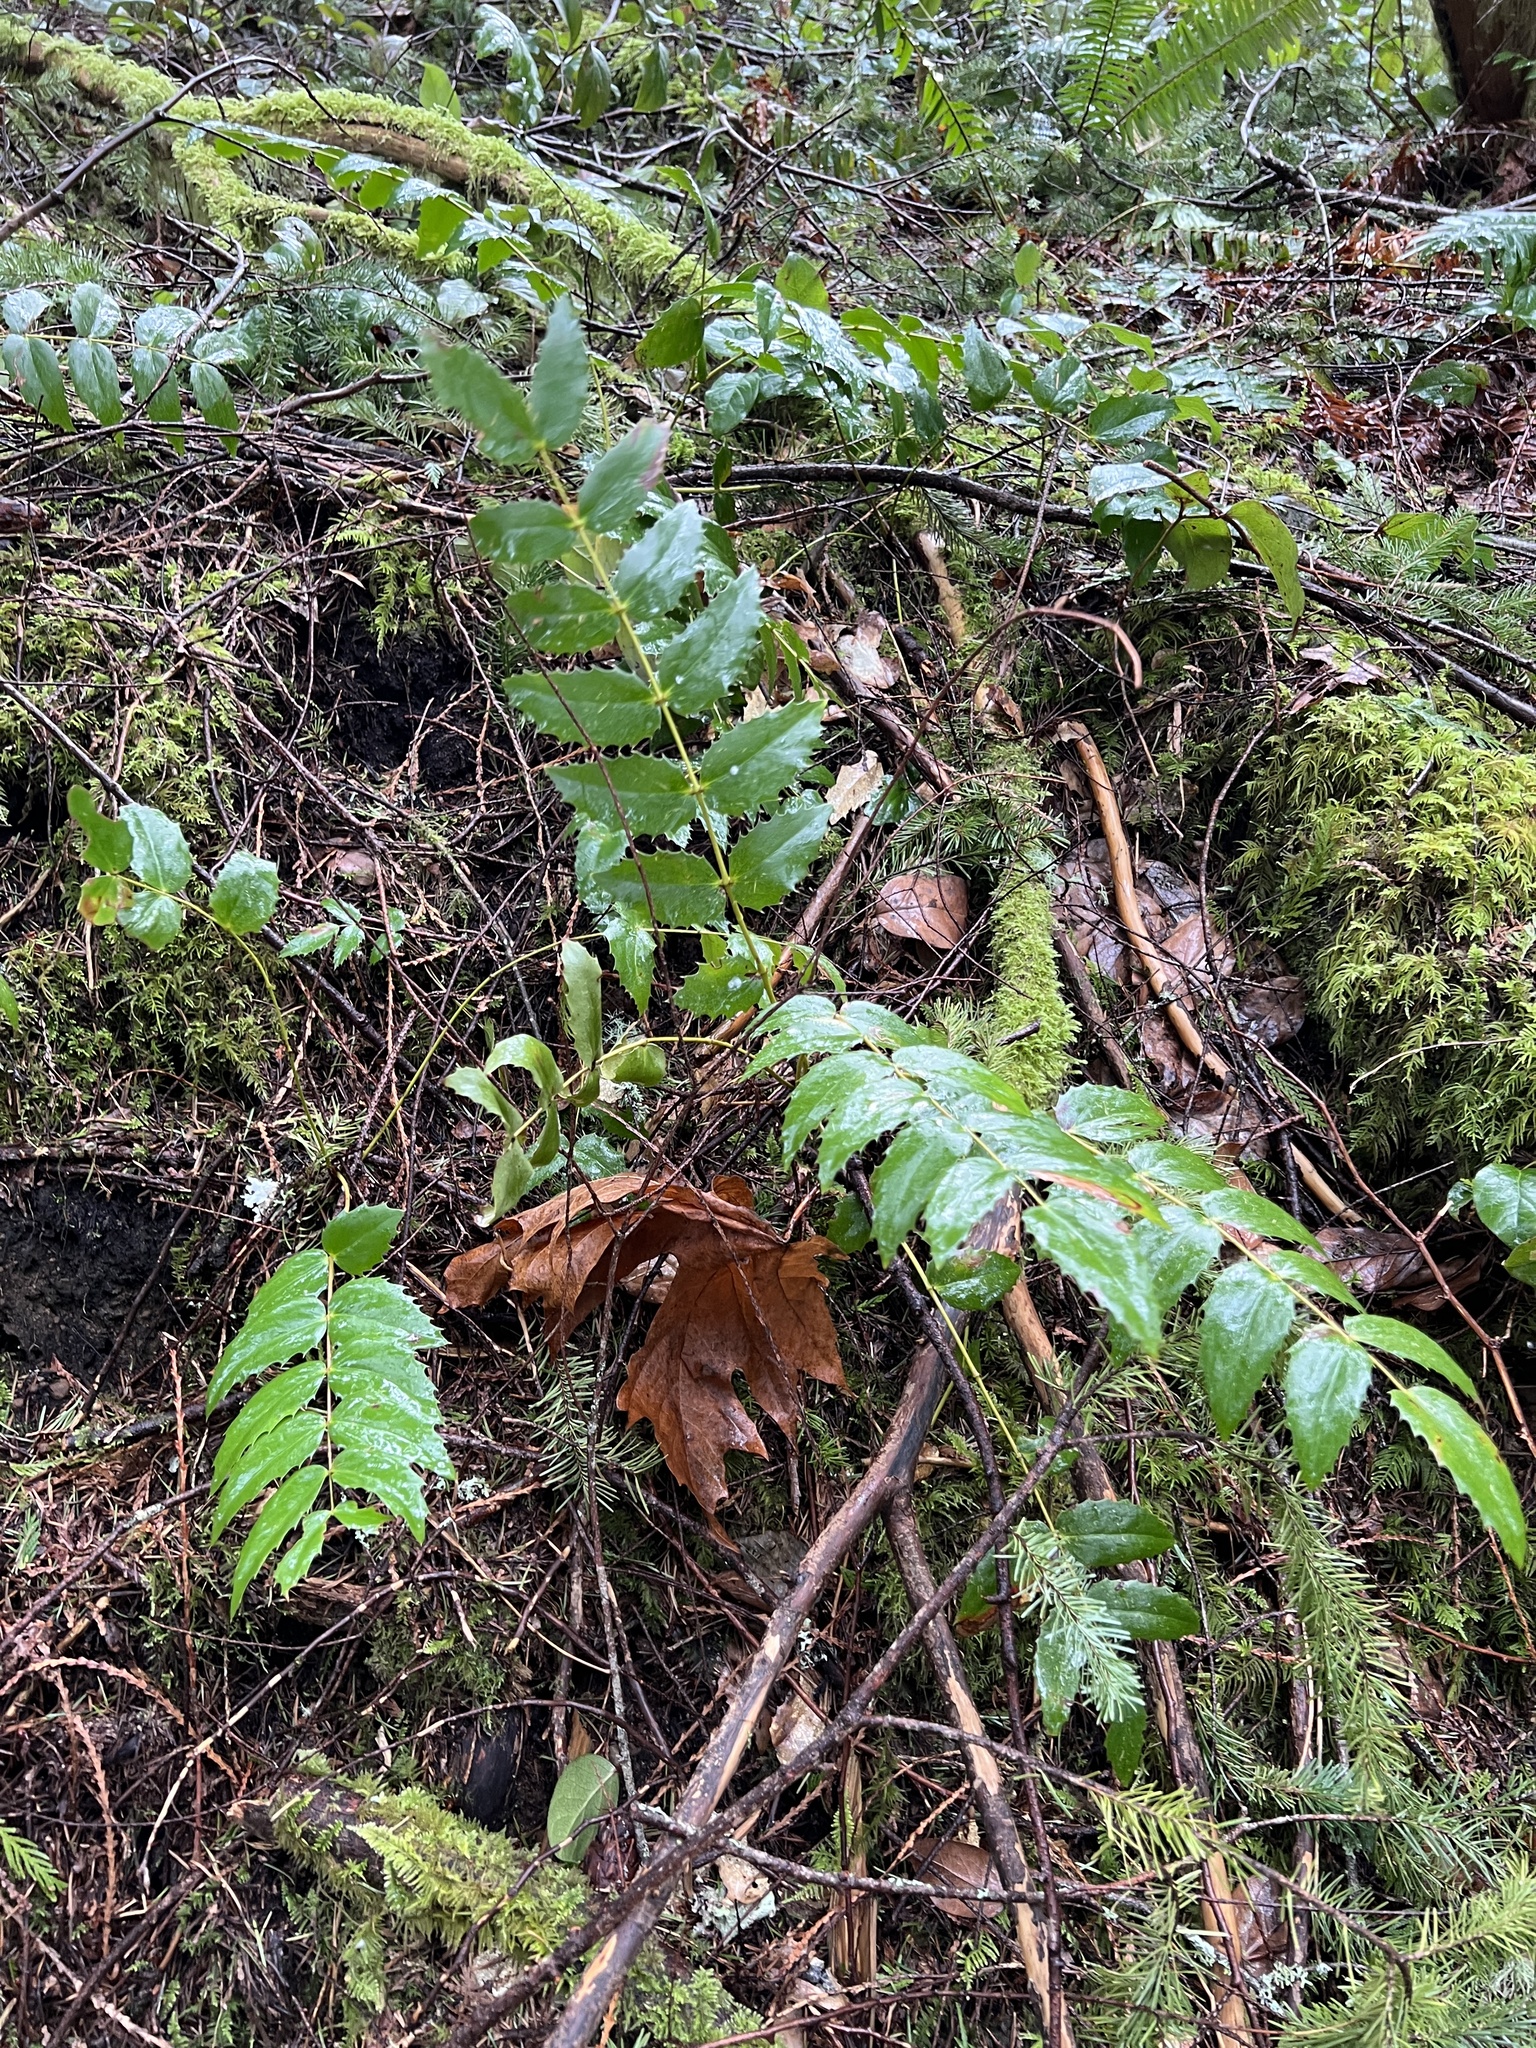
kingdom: Plantae
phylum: Tracheophyta
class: Magnoliopsida
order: Ranunculales
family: Berberidaceae
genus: Mahonia
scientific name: Mahonia nervosa
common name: Cascade oregon-grape
